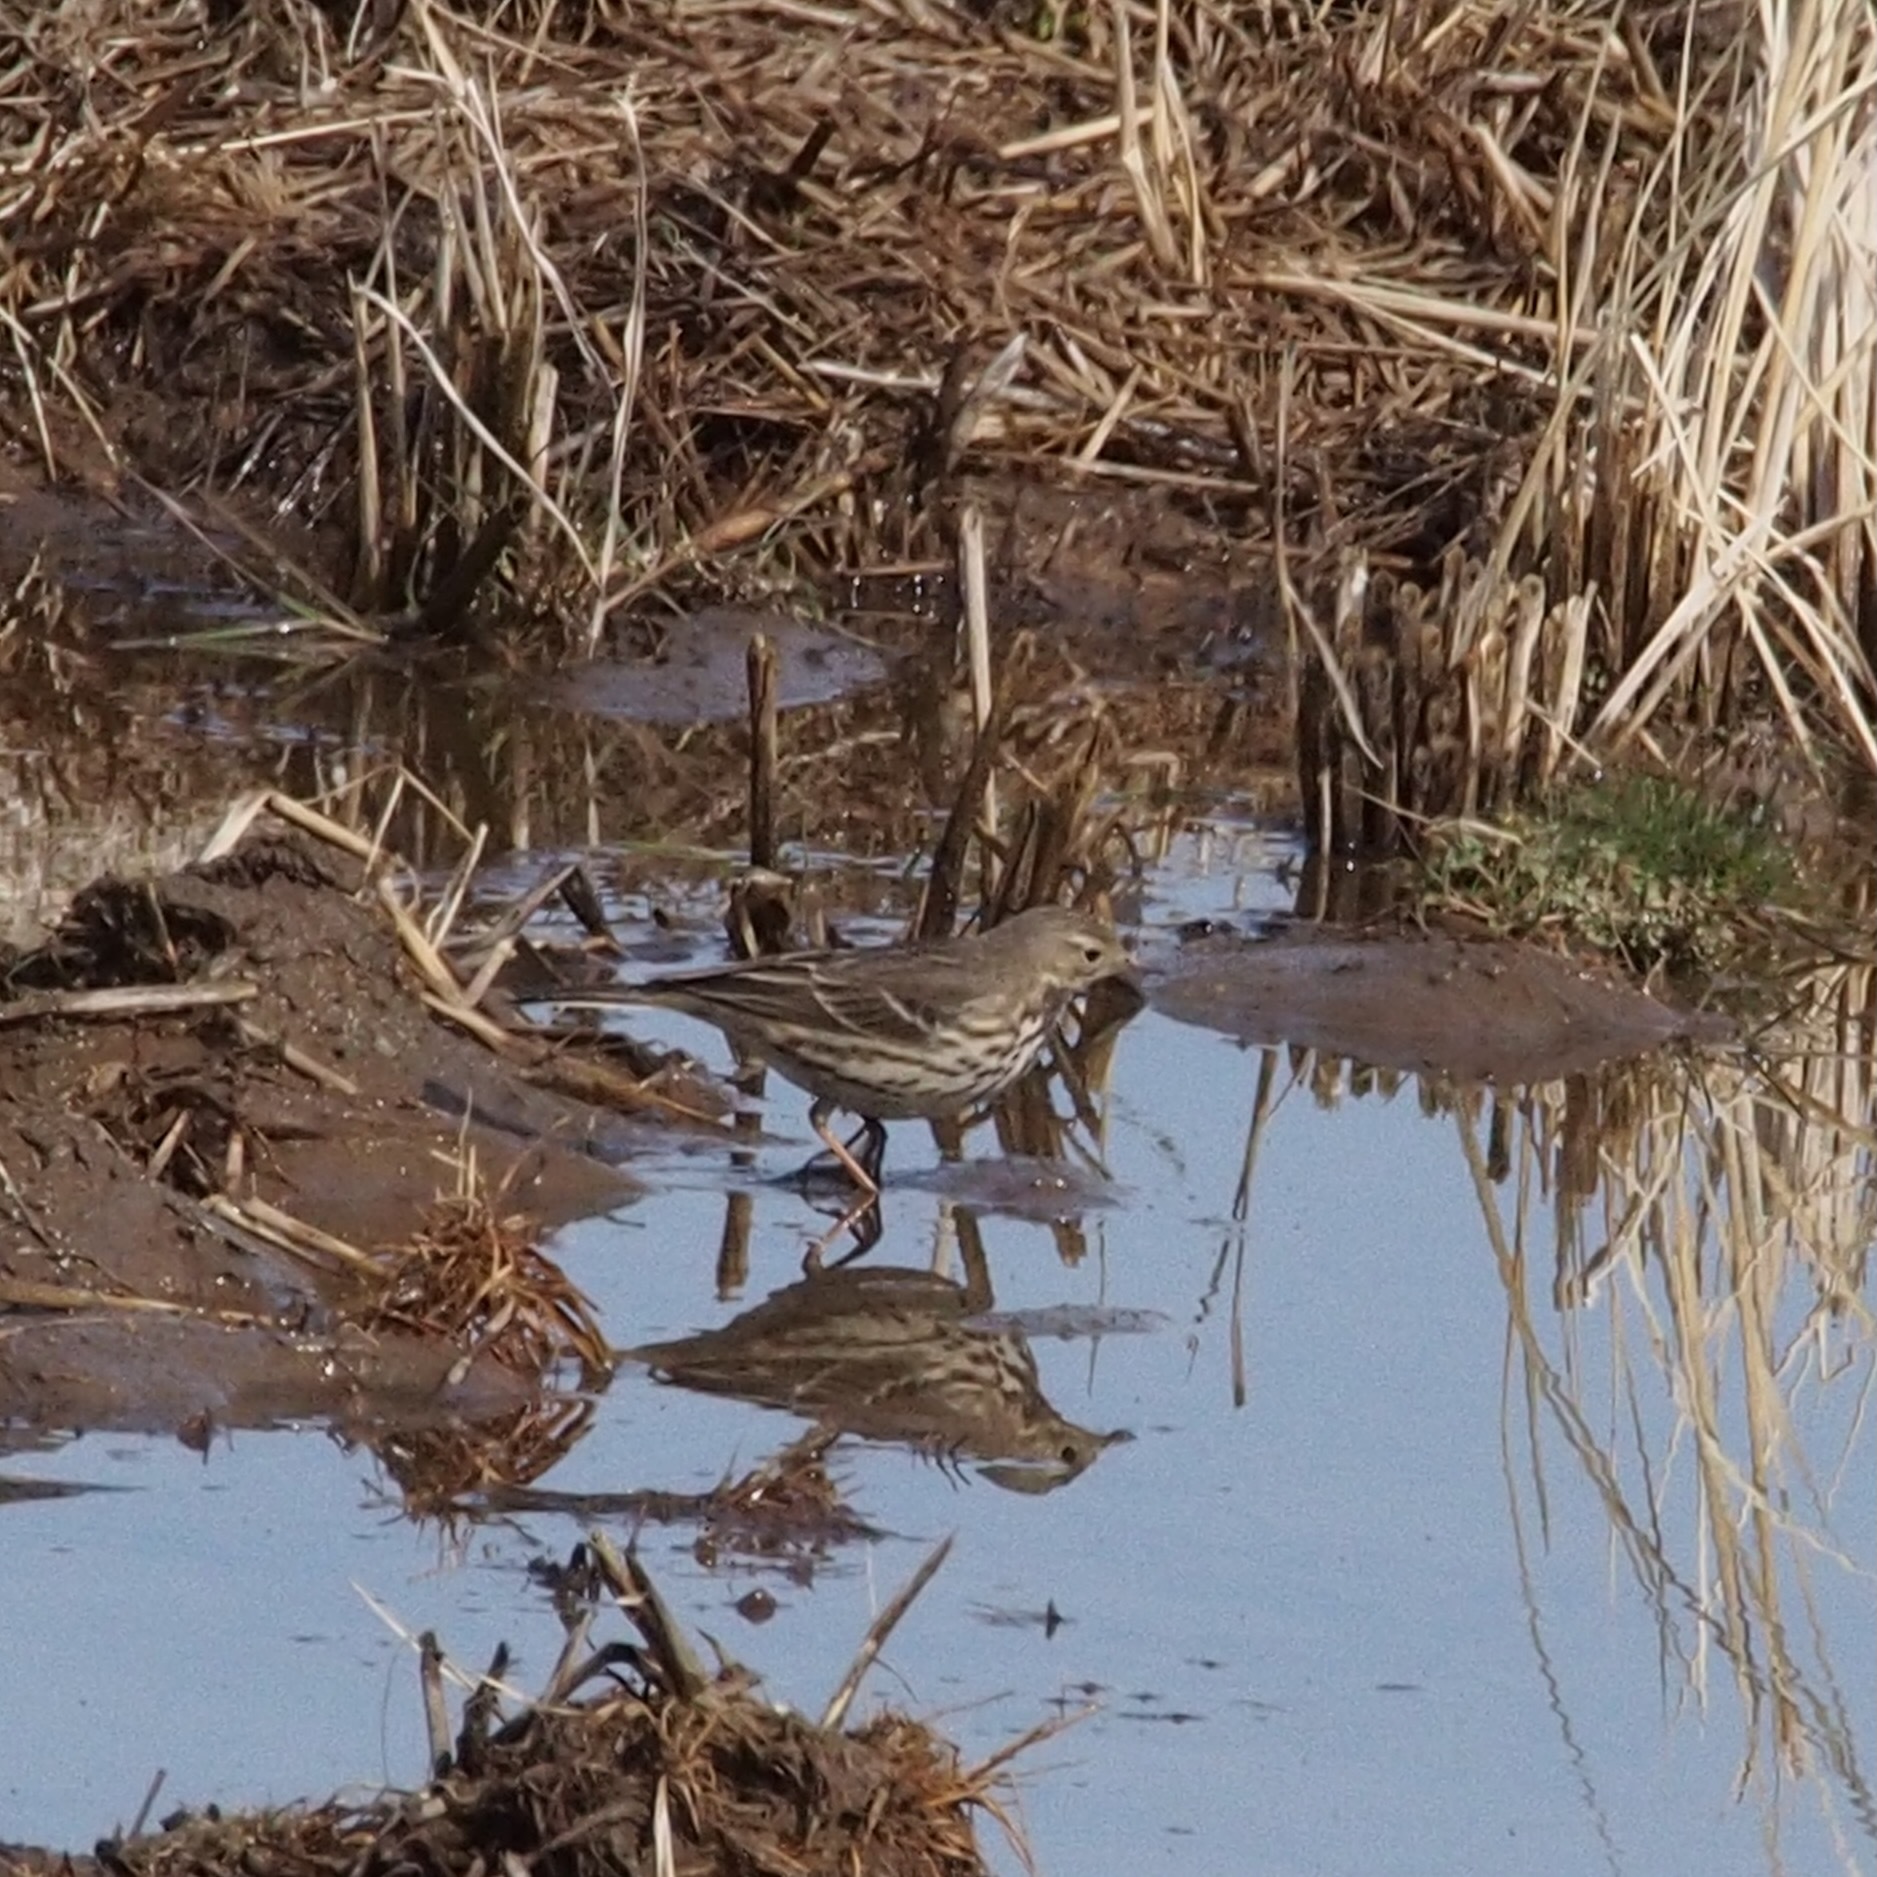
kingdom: Animalia
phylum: Chordata
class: Aves
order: Passeriformes
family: Motacillidae
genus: Anthus
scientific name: Anthus rubescens
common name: Buff-bellied pipit
